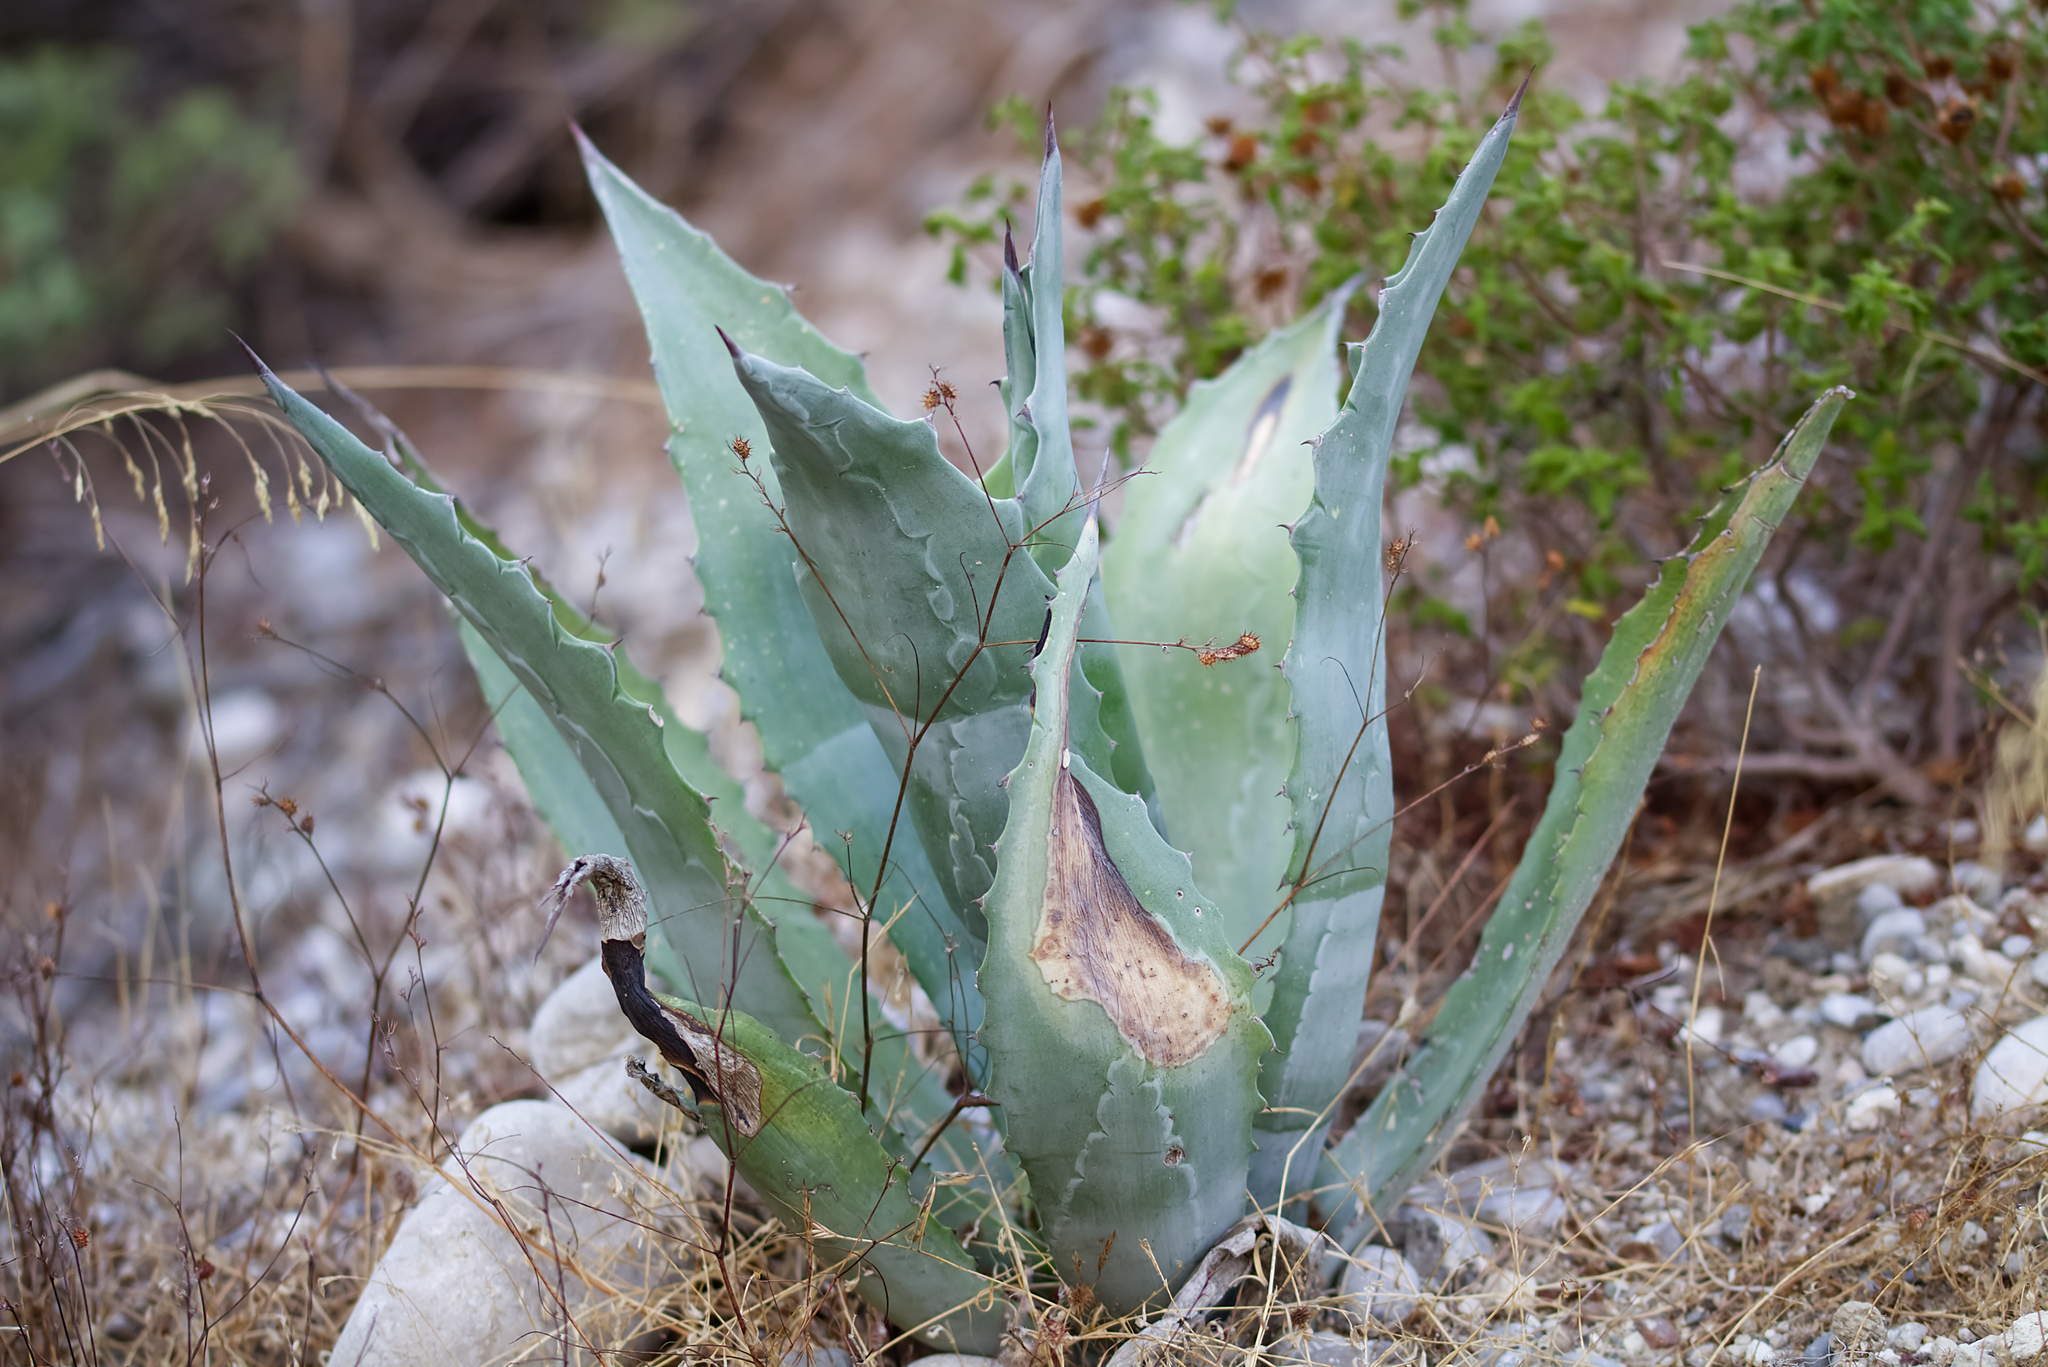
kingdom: Plantae
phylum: Tracheophyta
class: Liliopsida
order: Asparagales
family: Asparagaceae
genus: Agave
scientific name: Agave americana
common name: Centuryplant
